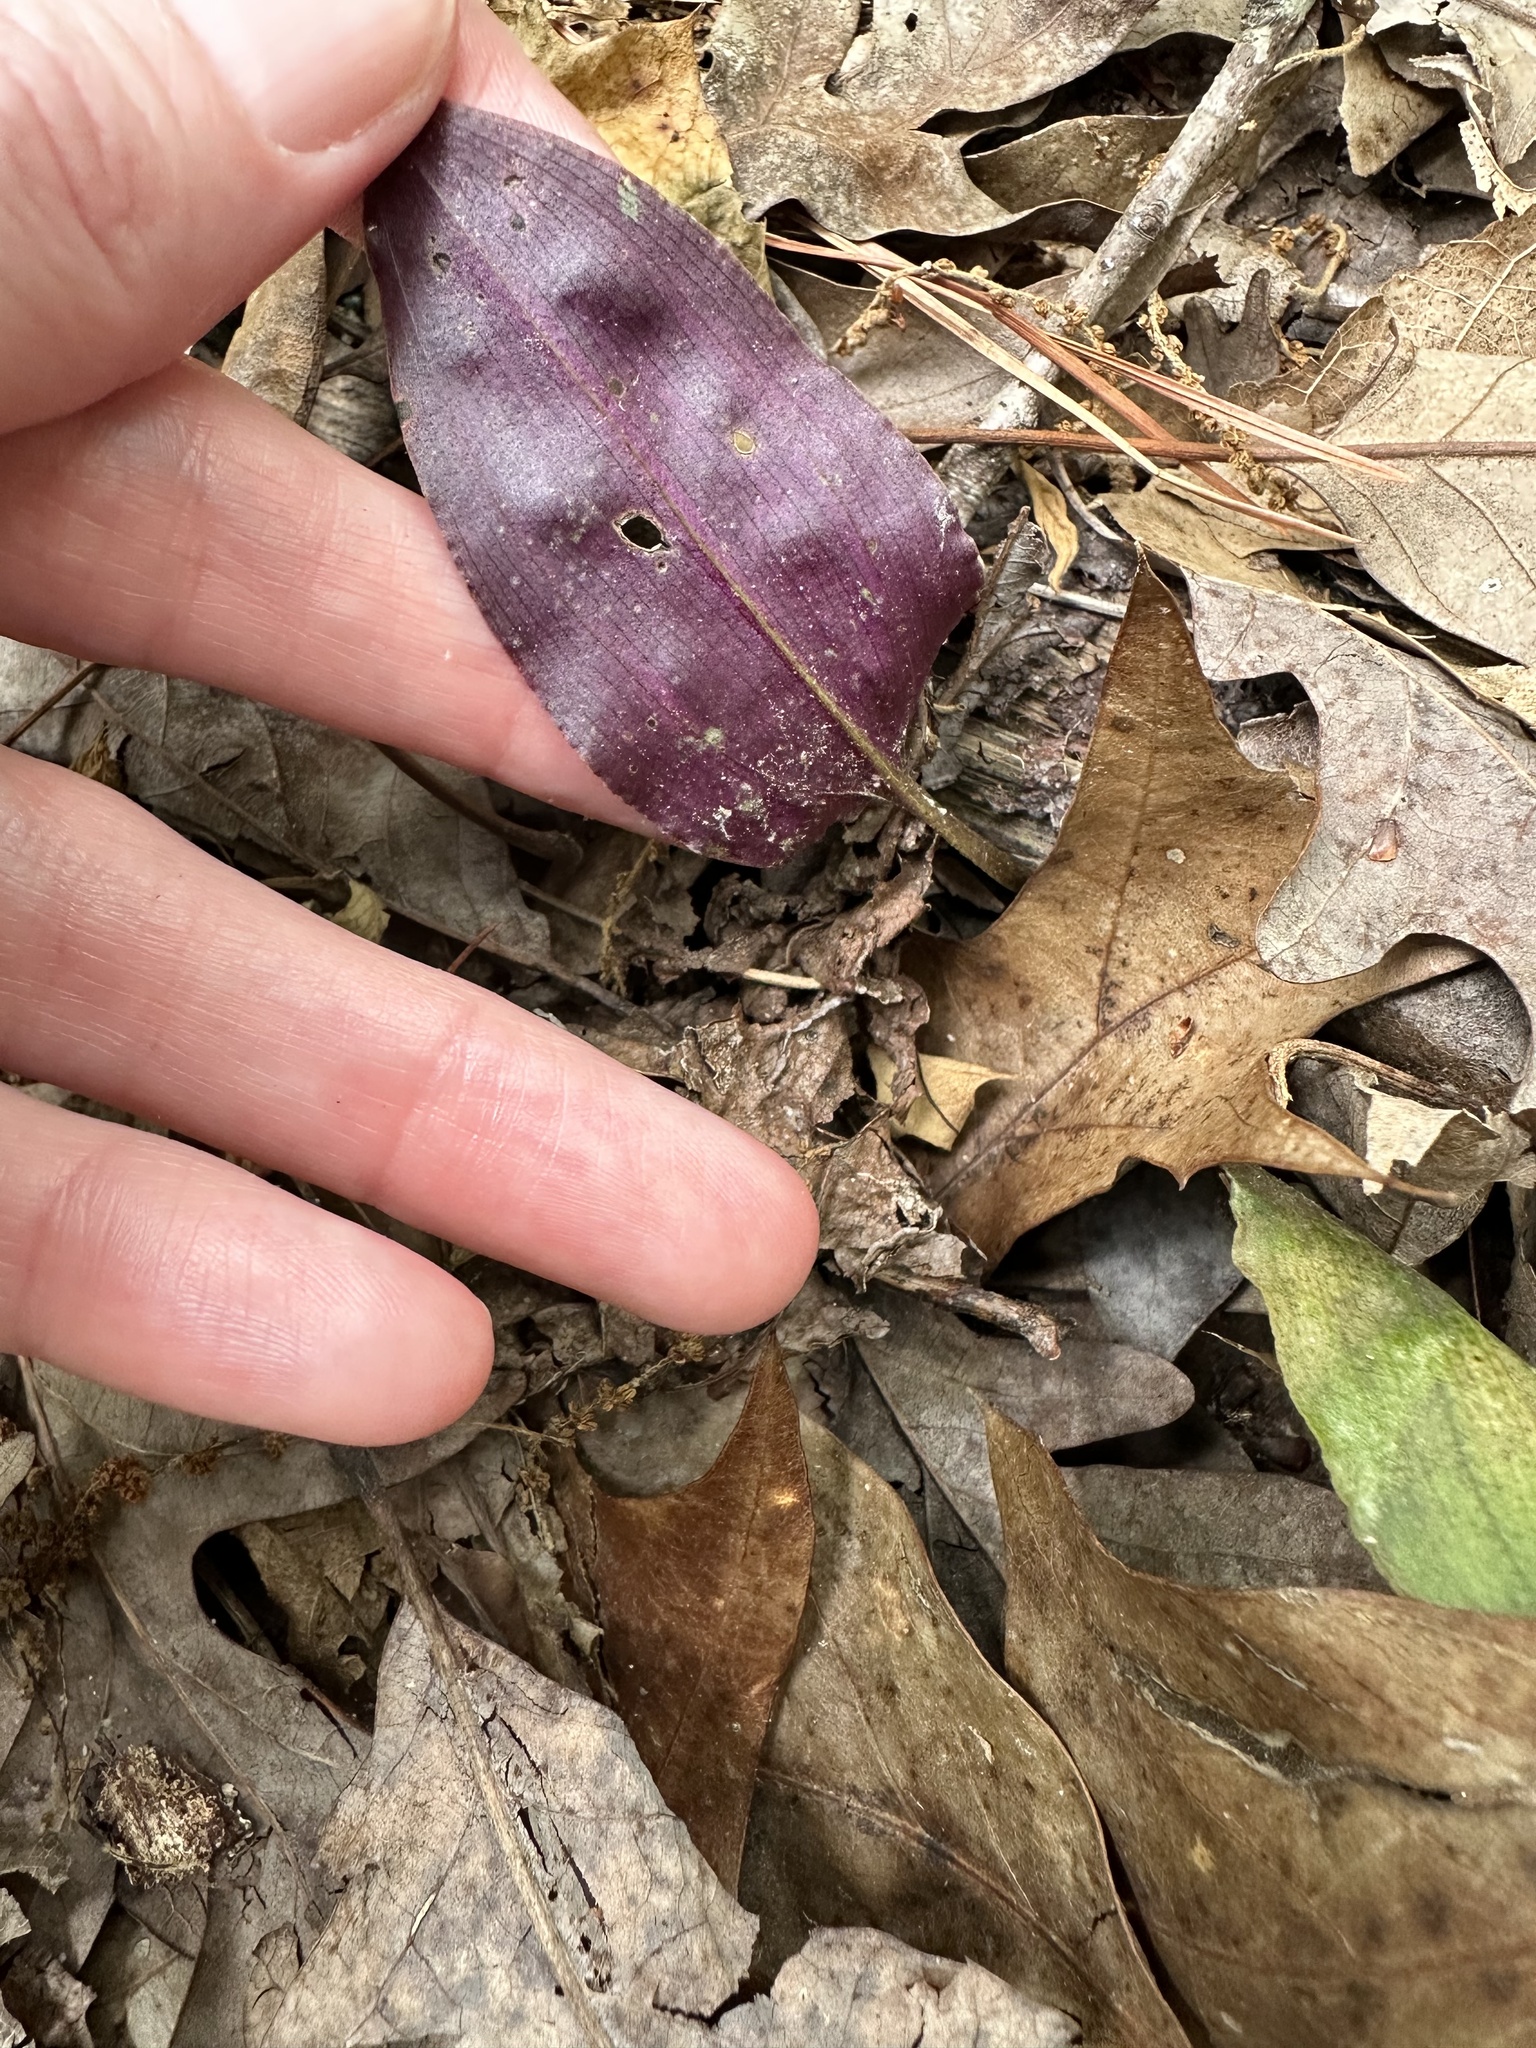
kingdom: Plantae
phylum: Tracheophyta
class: Liliopsida
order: Asparagales
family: Orchidaceae
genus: Tipularia
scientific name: Tipularia discolor
